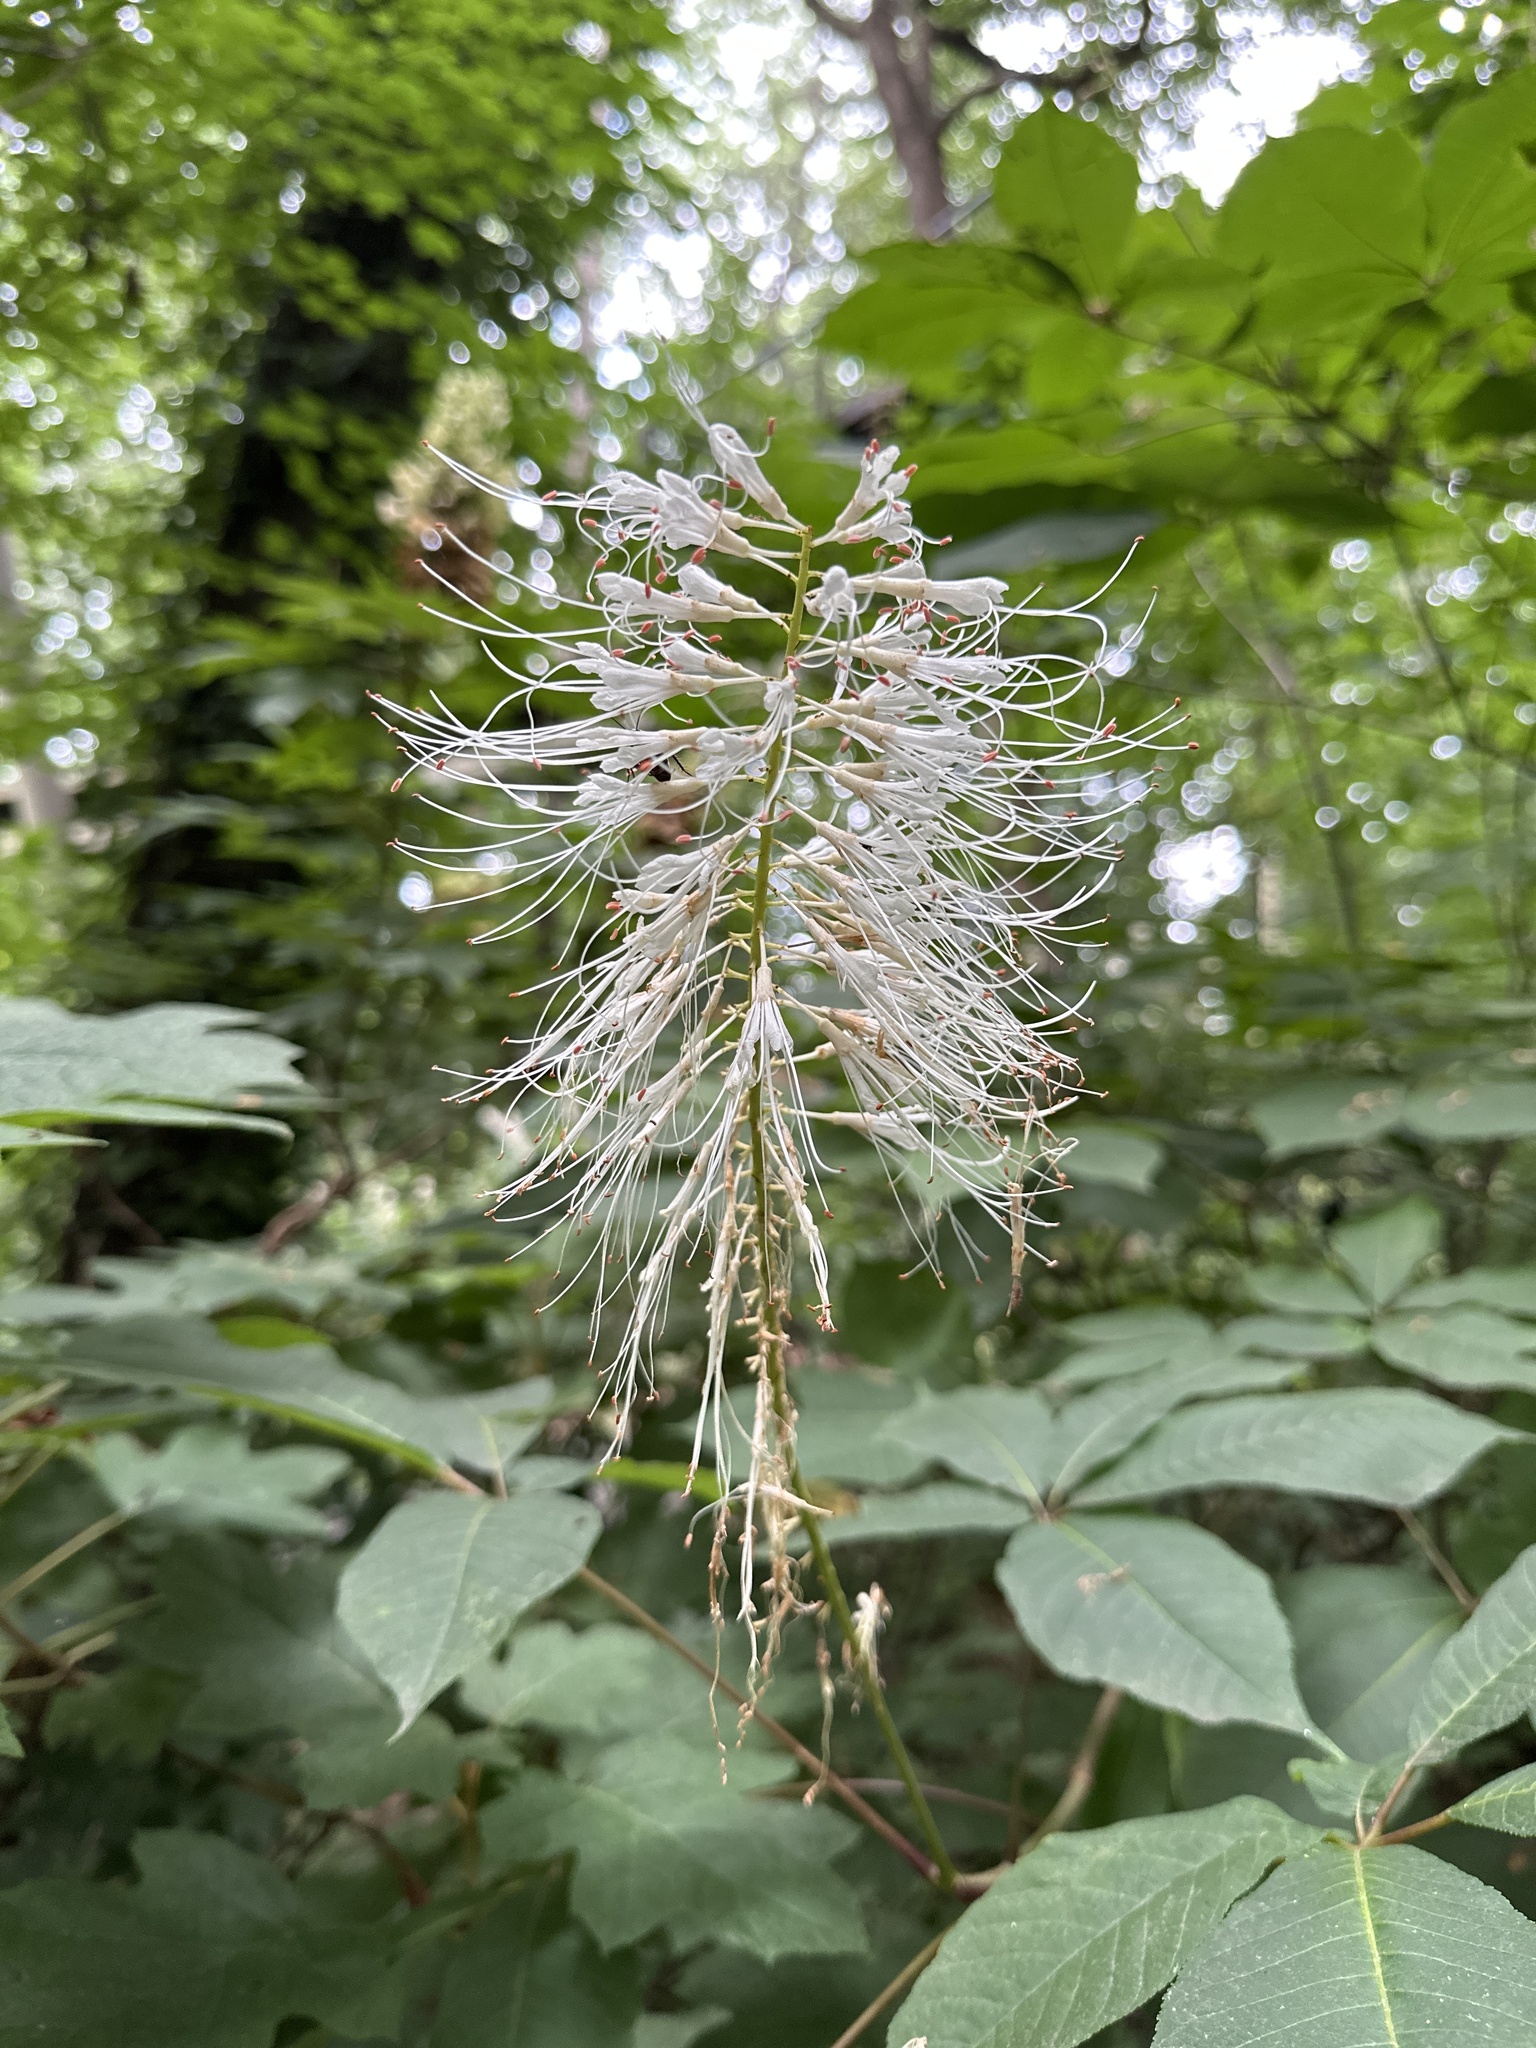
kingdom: Plantae
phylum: Tracheophyta
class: Magnoliopsida
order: Sapindales
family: Sapindaceae
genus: Aesculus
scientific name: Aesculus parviflora
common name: Bottlebrush buckeye
